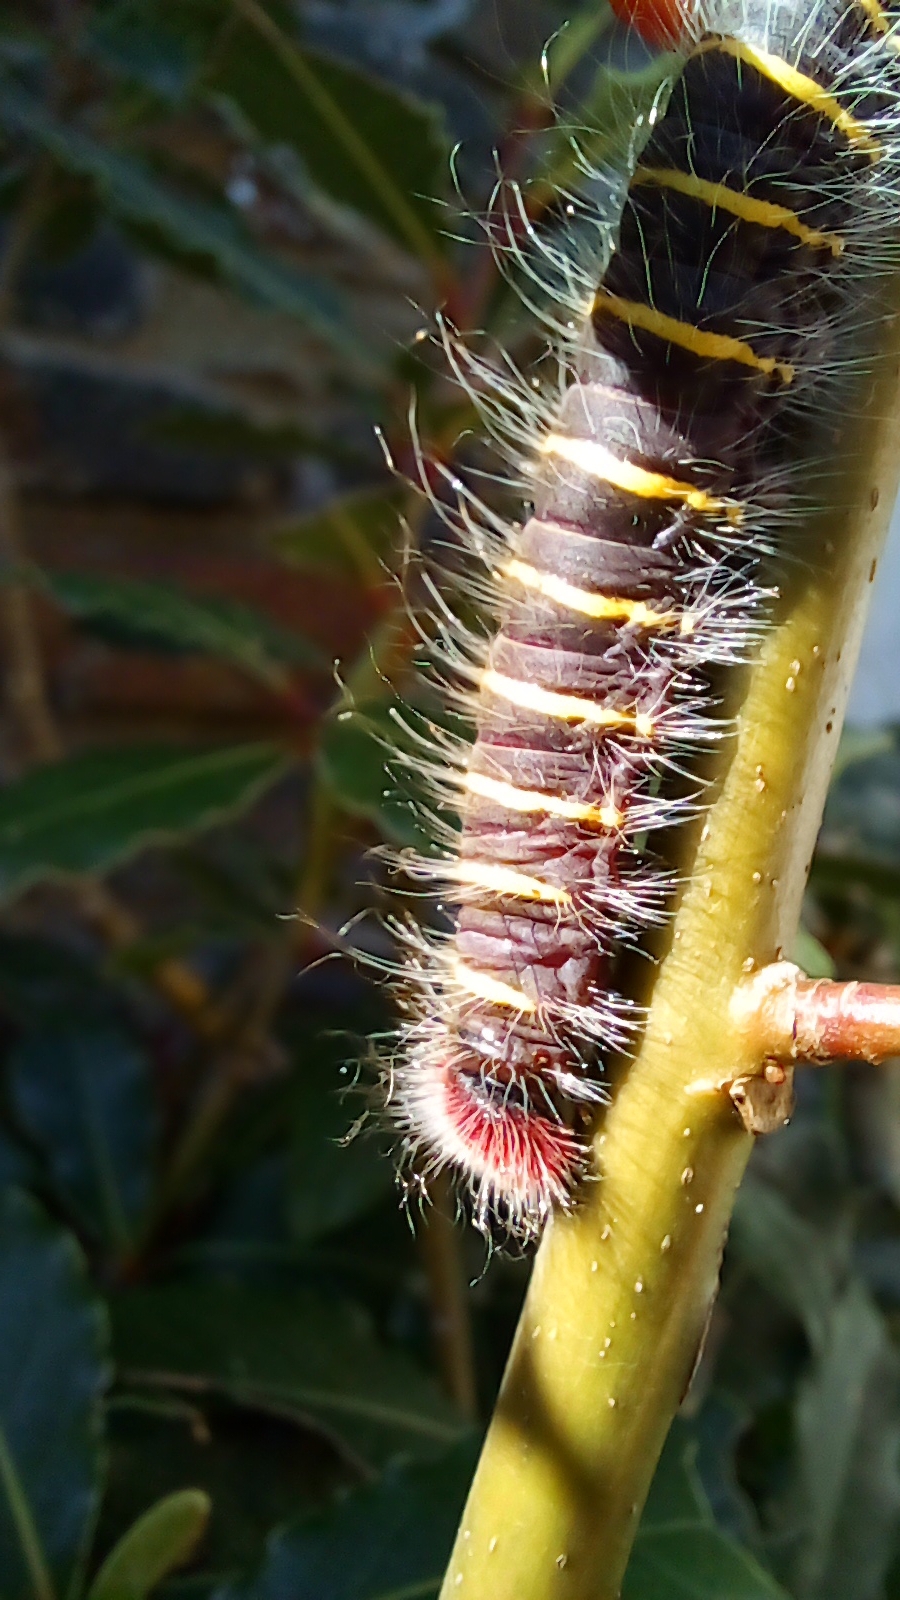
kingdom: Animalia
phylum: Arthropoda
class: Insecta
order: Lepidoptera
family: Hesperiidae
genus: Pyrrhopyge
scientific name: Pyrrhopyge charybdis
